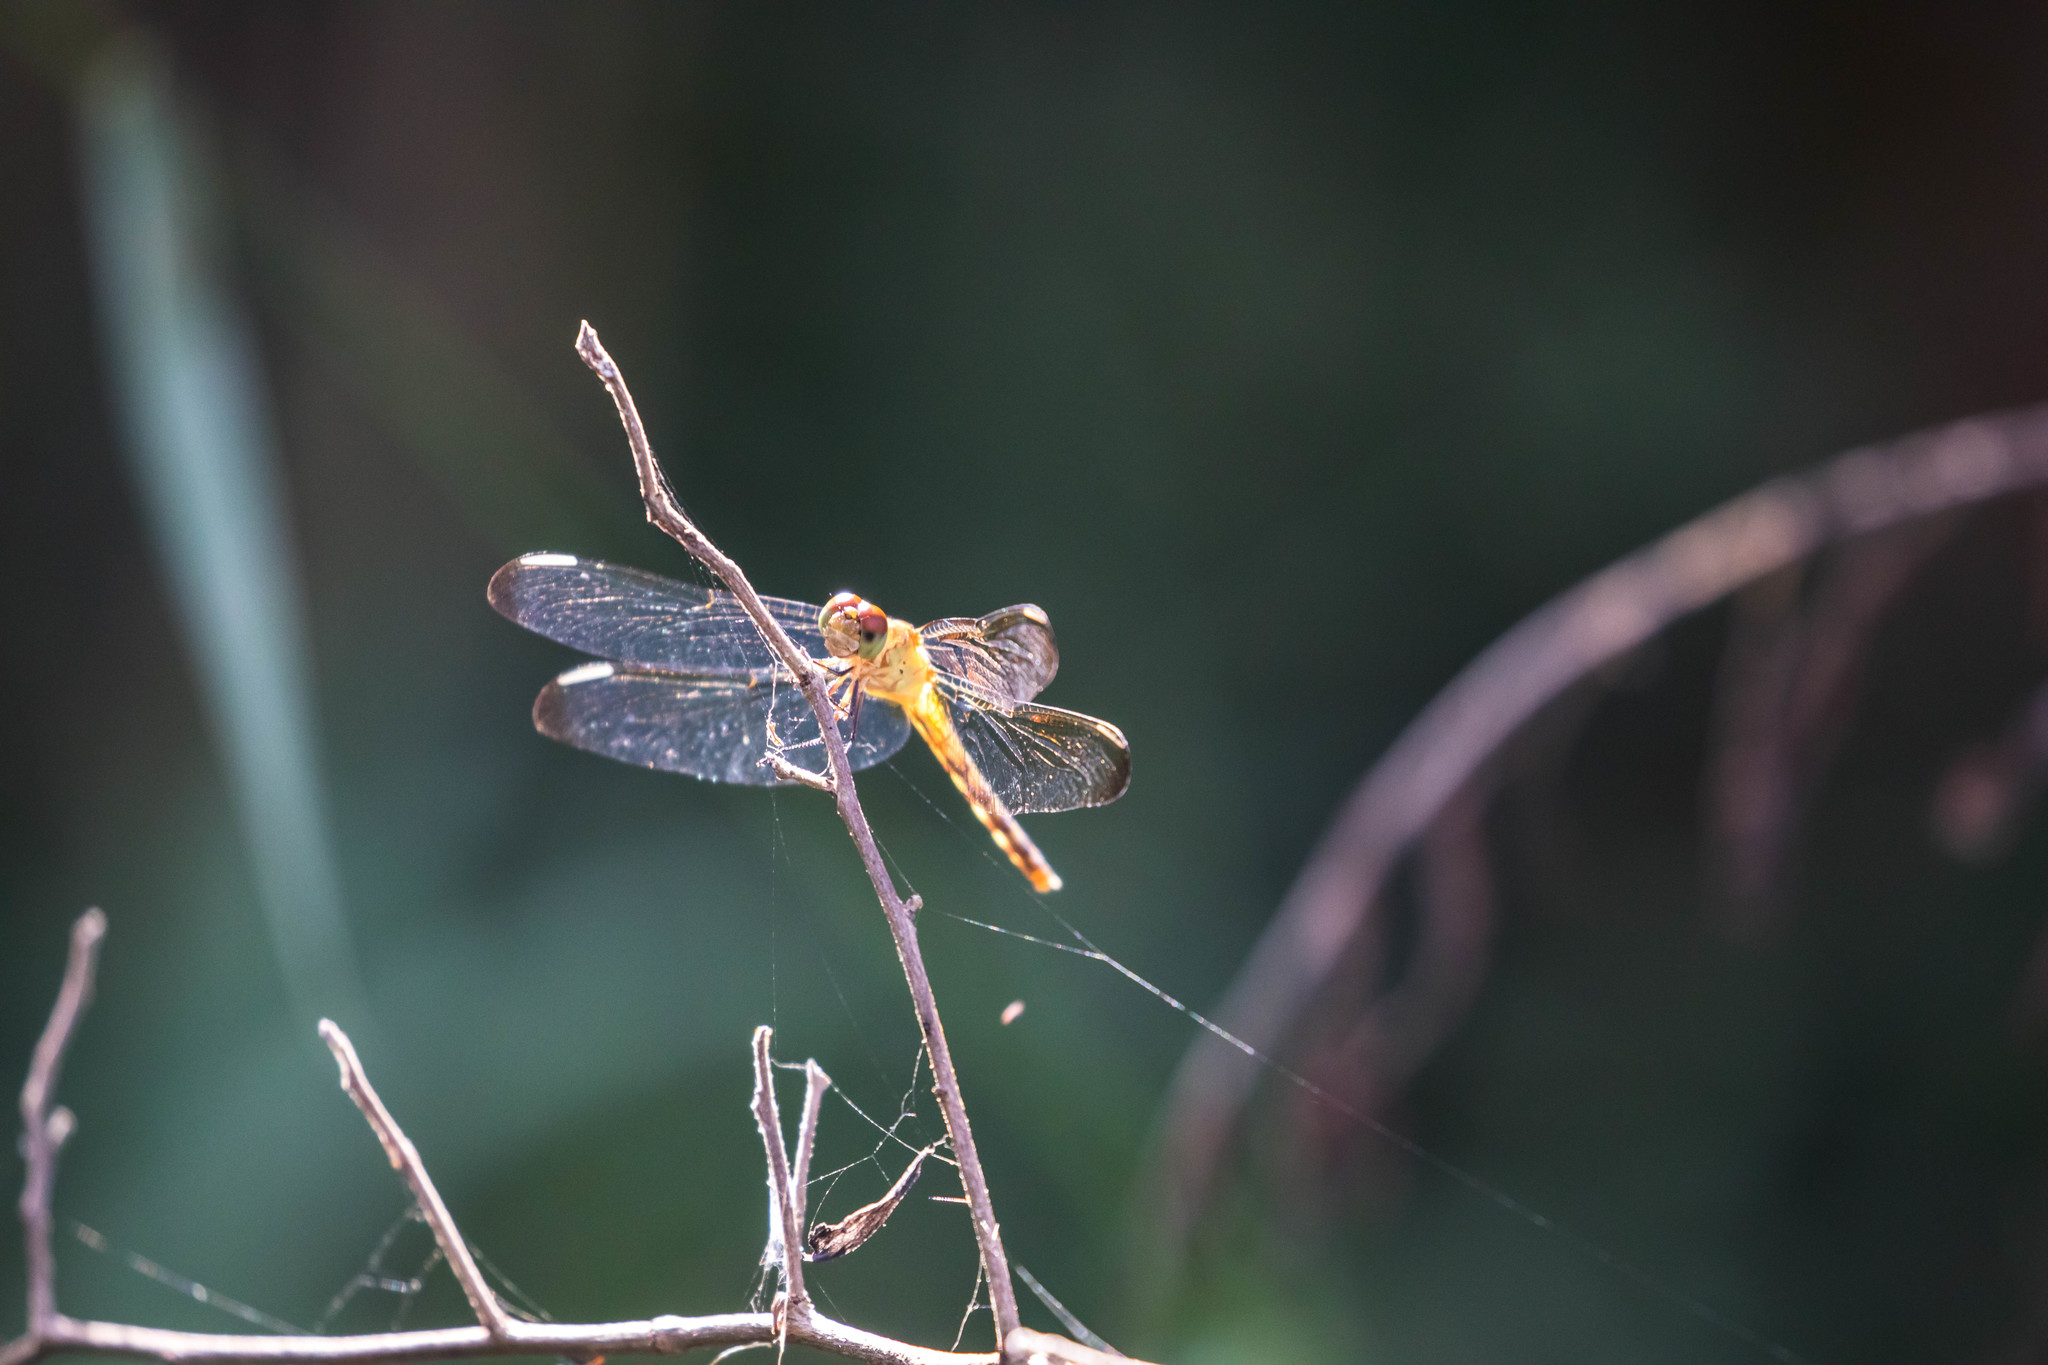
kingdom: Animalia
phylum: Arthropoda
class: Insecta
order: Odonata
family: Libellulidae
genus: Erythrodiplax
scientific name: Erythrodiplax umbrata
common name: Band-winged dragonlet
